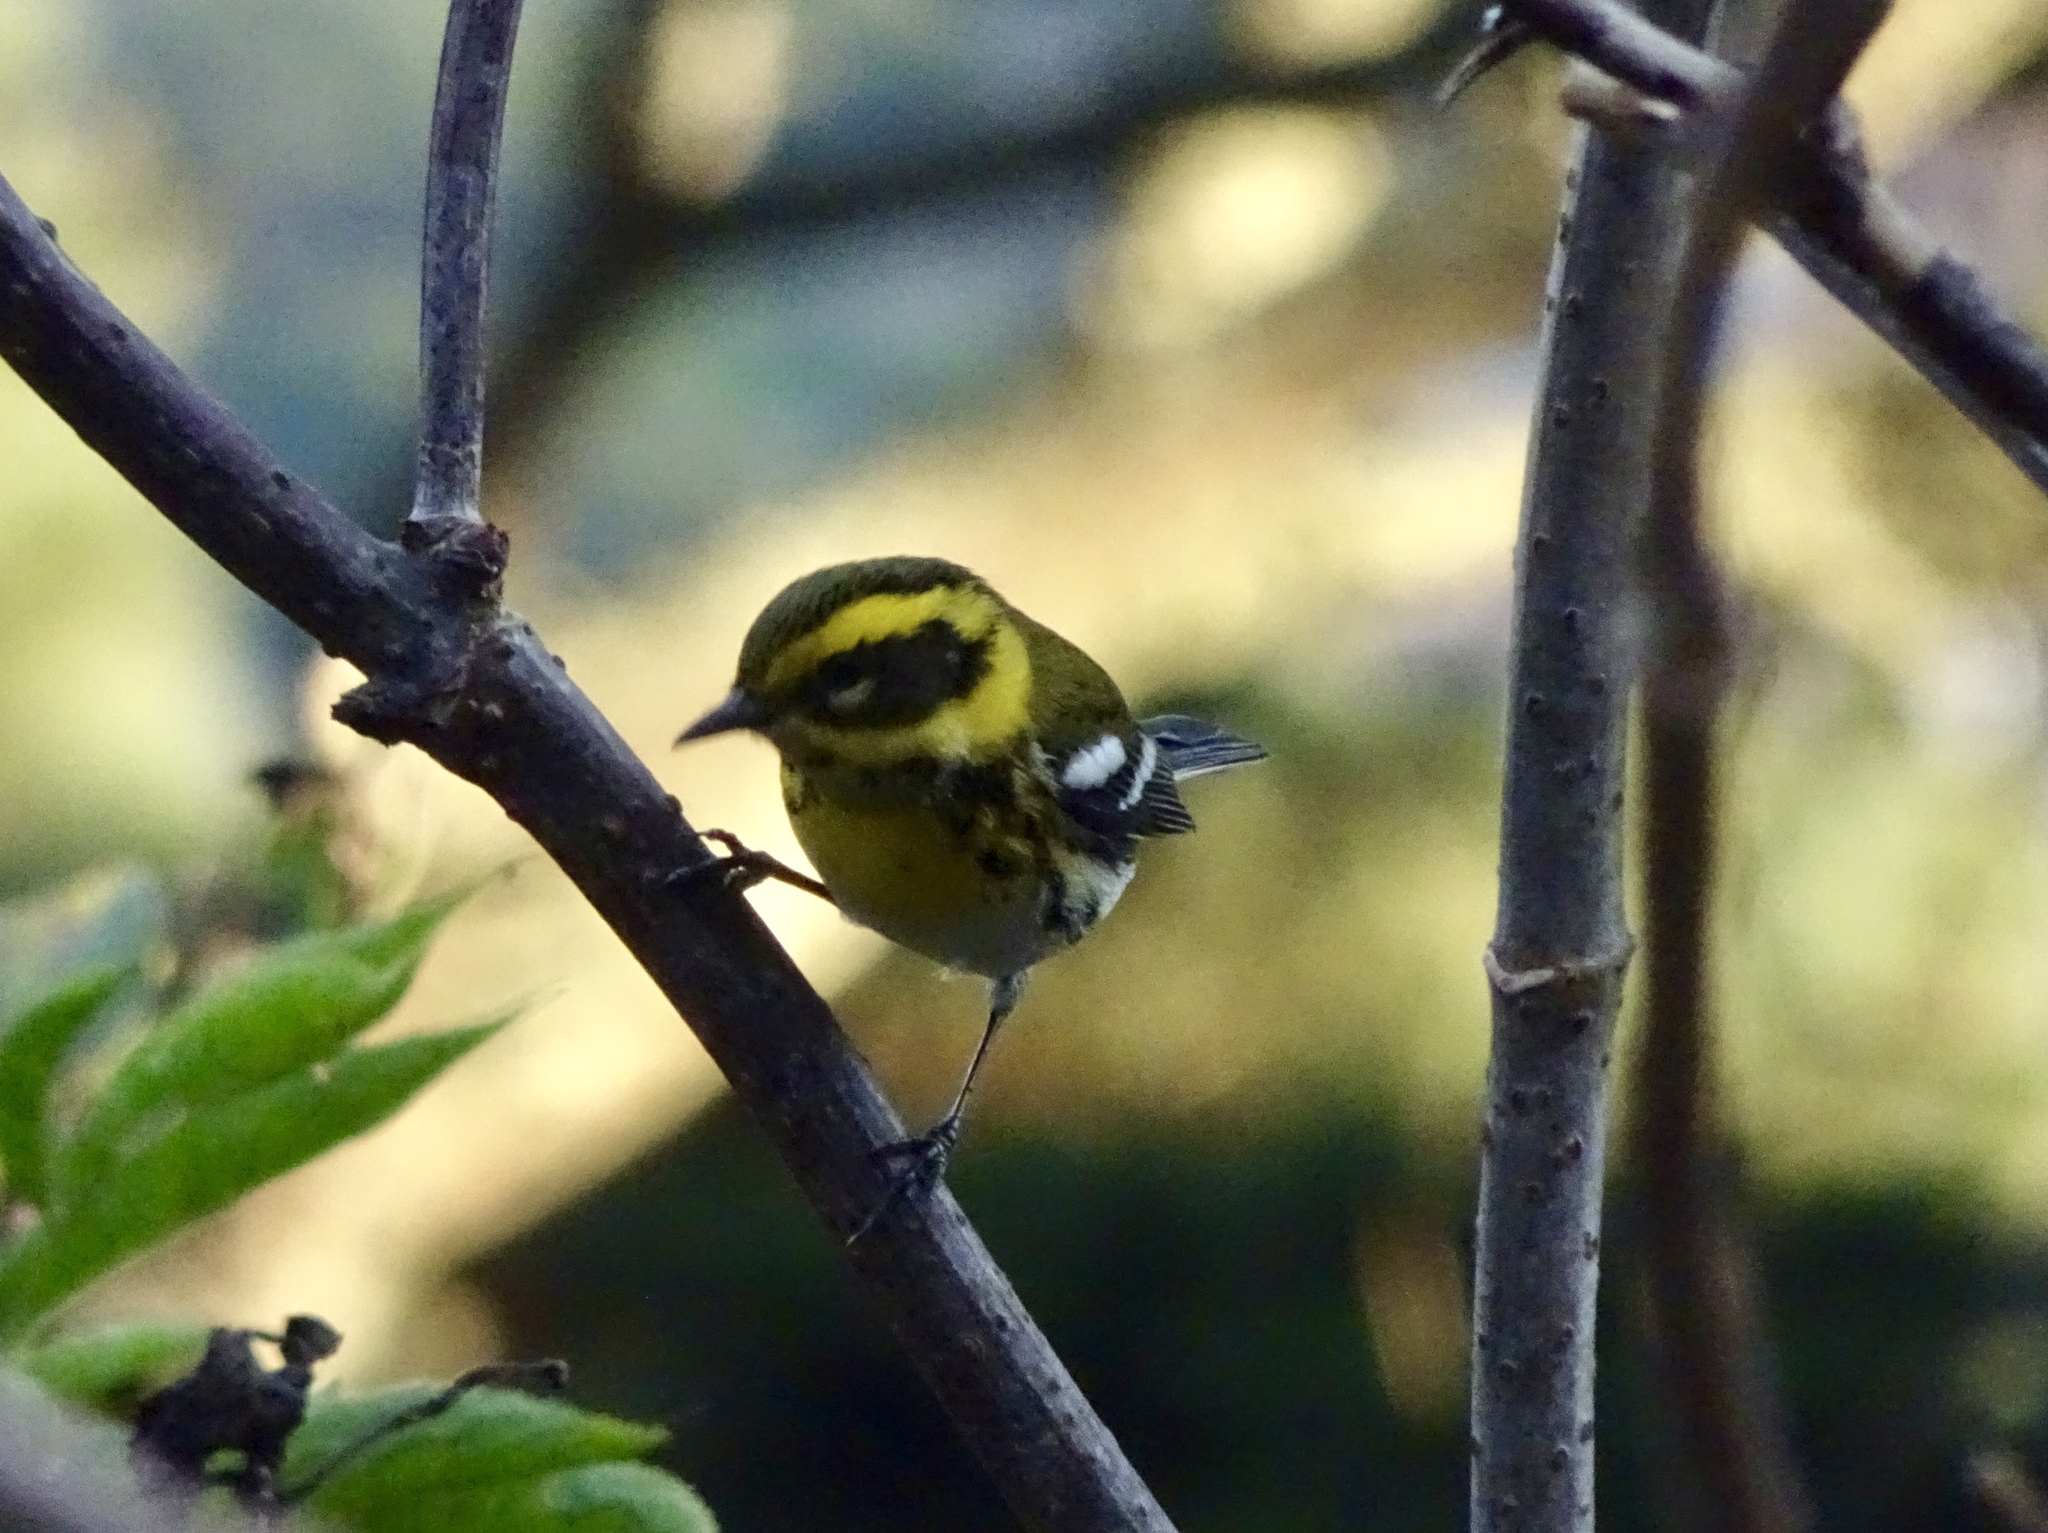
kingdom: Animalia
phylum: Chordata
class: Aves
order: Passeriformes
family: Parulidae
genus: Setophaga
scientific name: Setophaga townsendi
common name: Townsend's warbler
